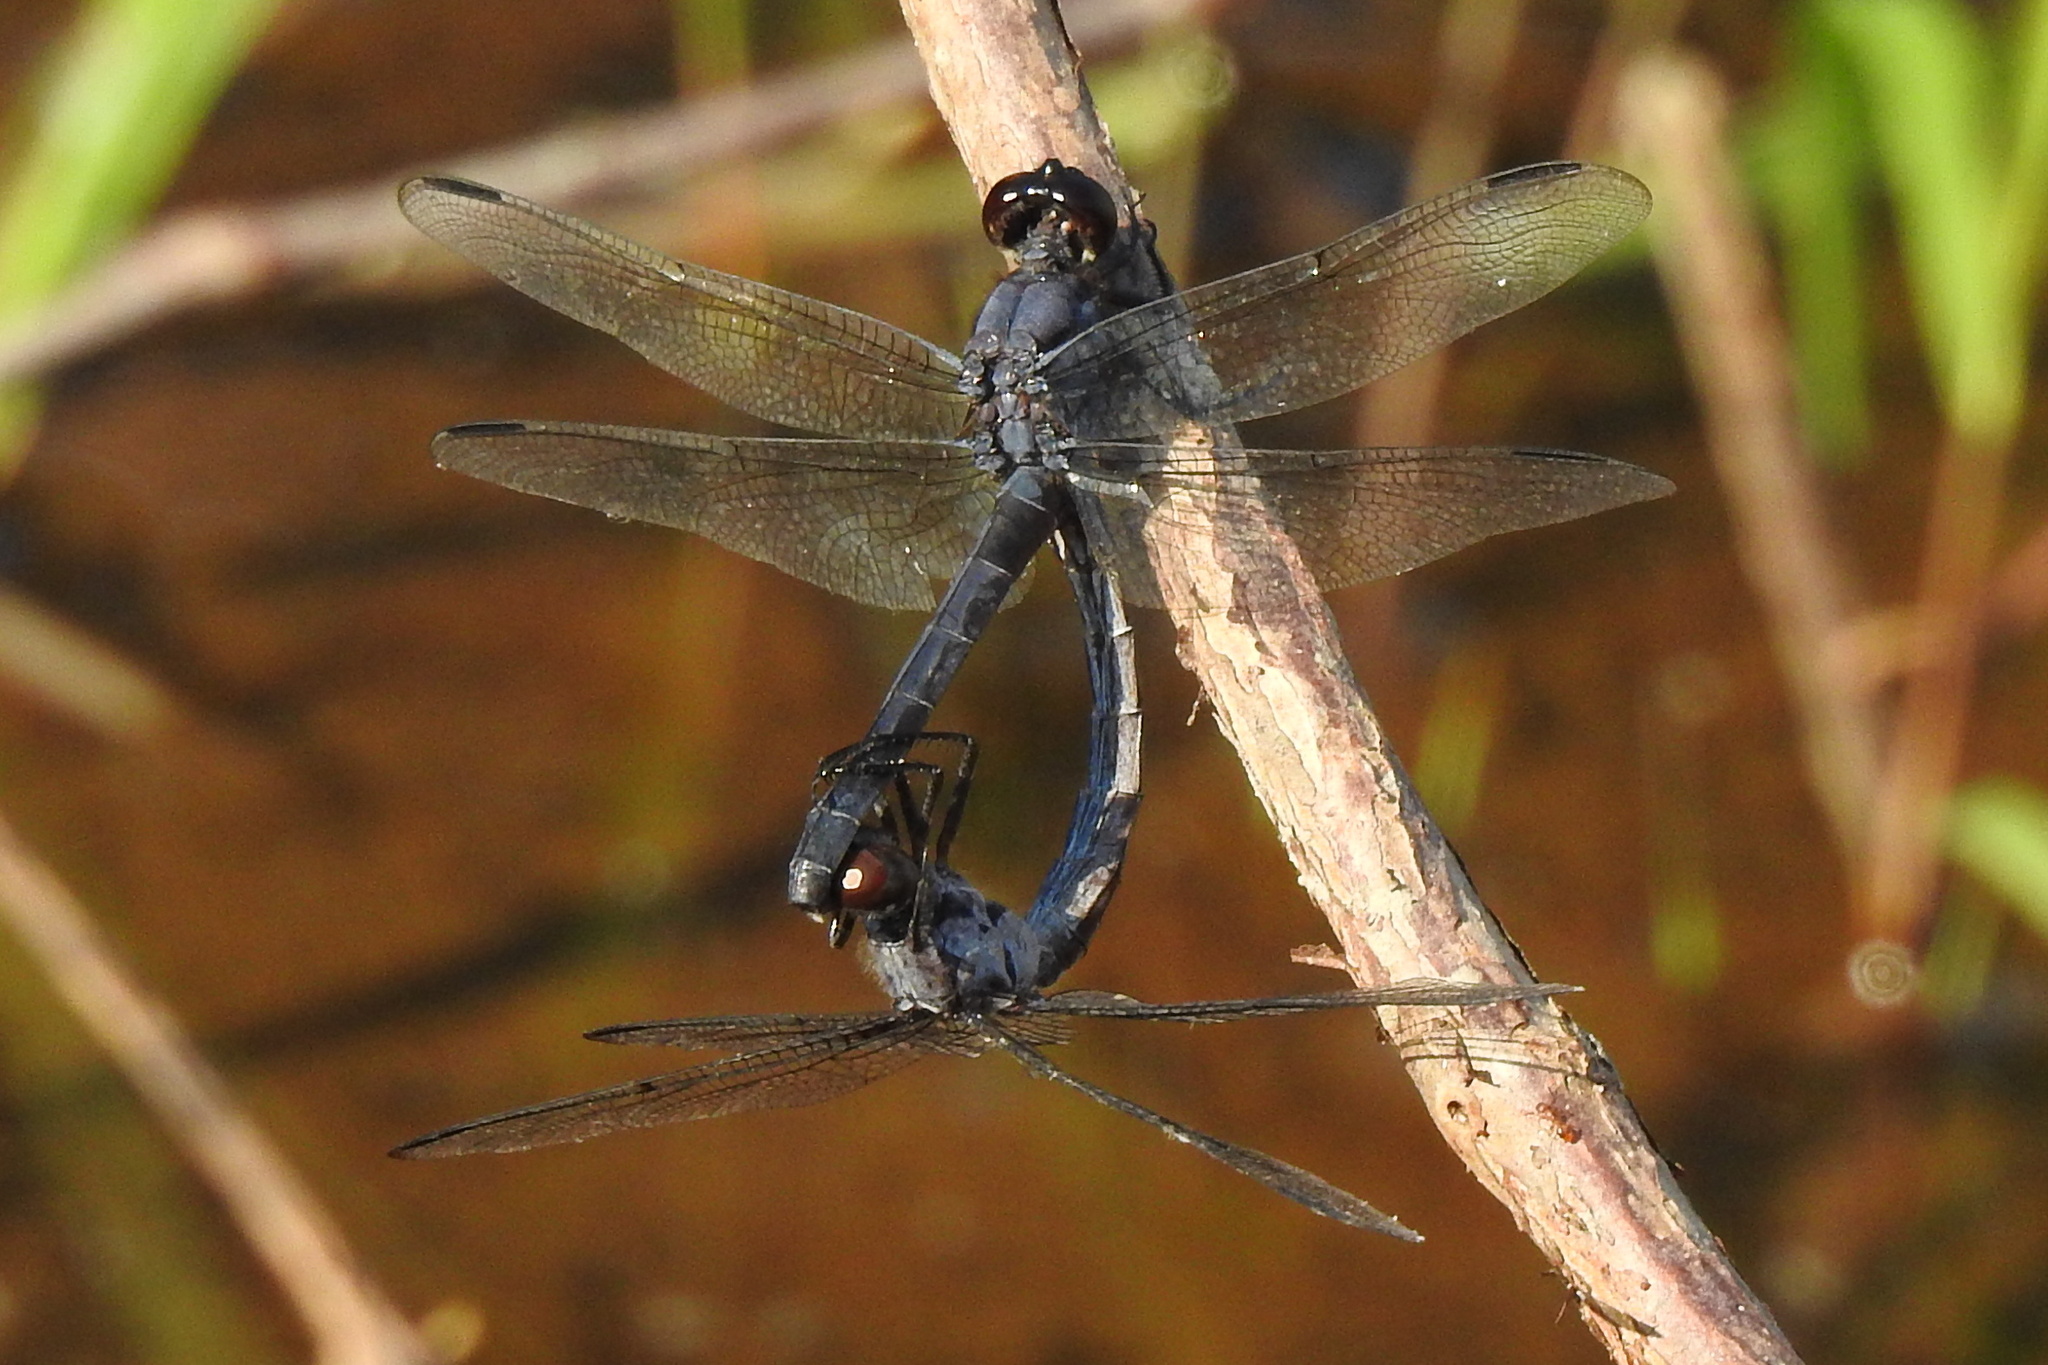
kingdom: Animalia
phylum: Arthropoda
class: Insecta
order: Odonata
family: Libellulidae
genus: Libellula
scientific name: Libellula incesta
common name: Slaty skimmer
